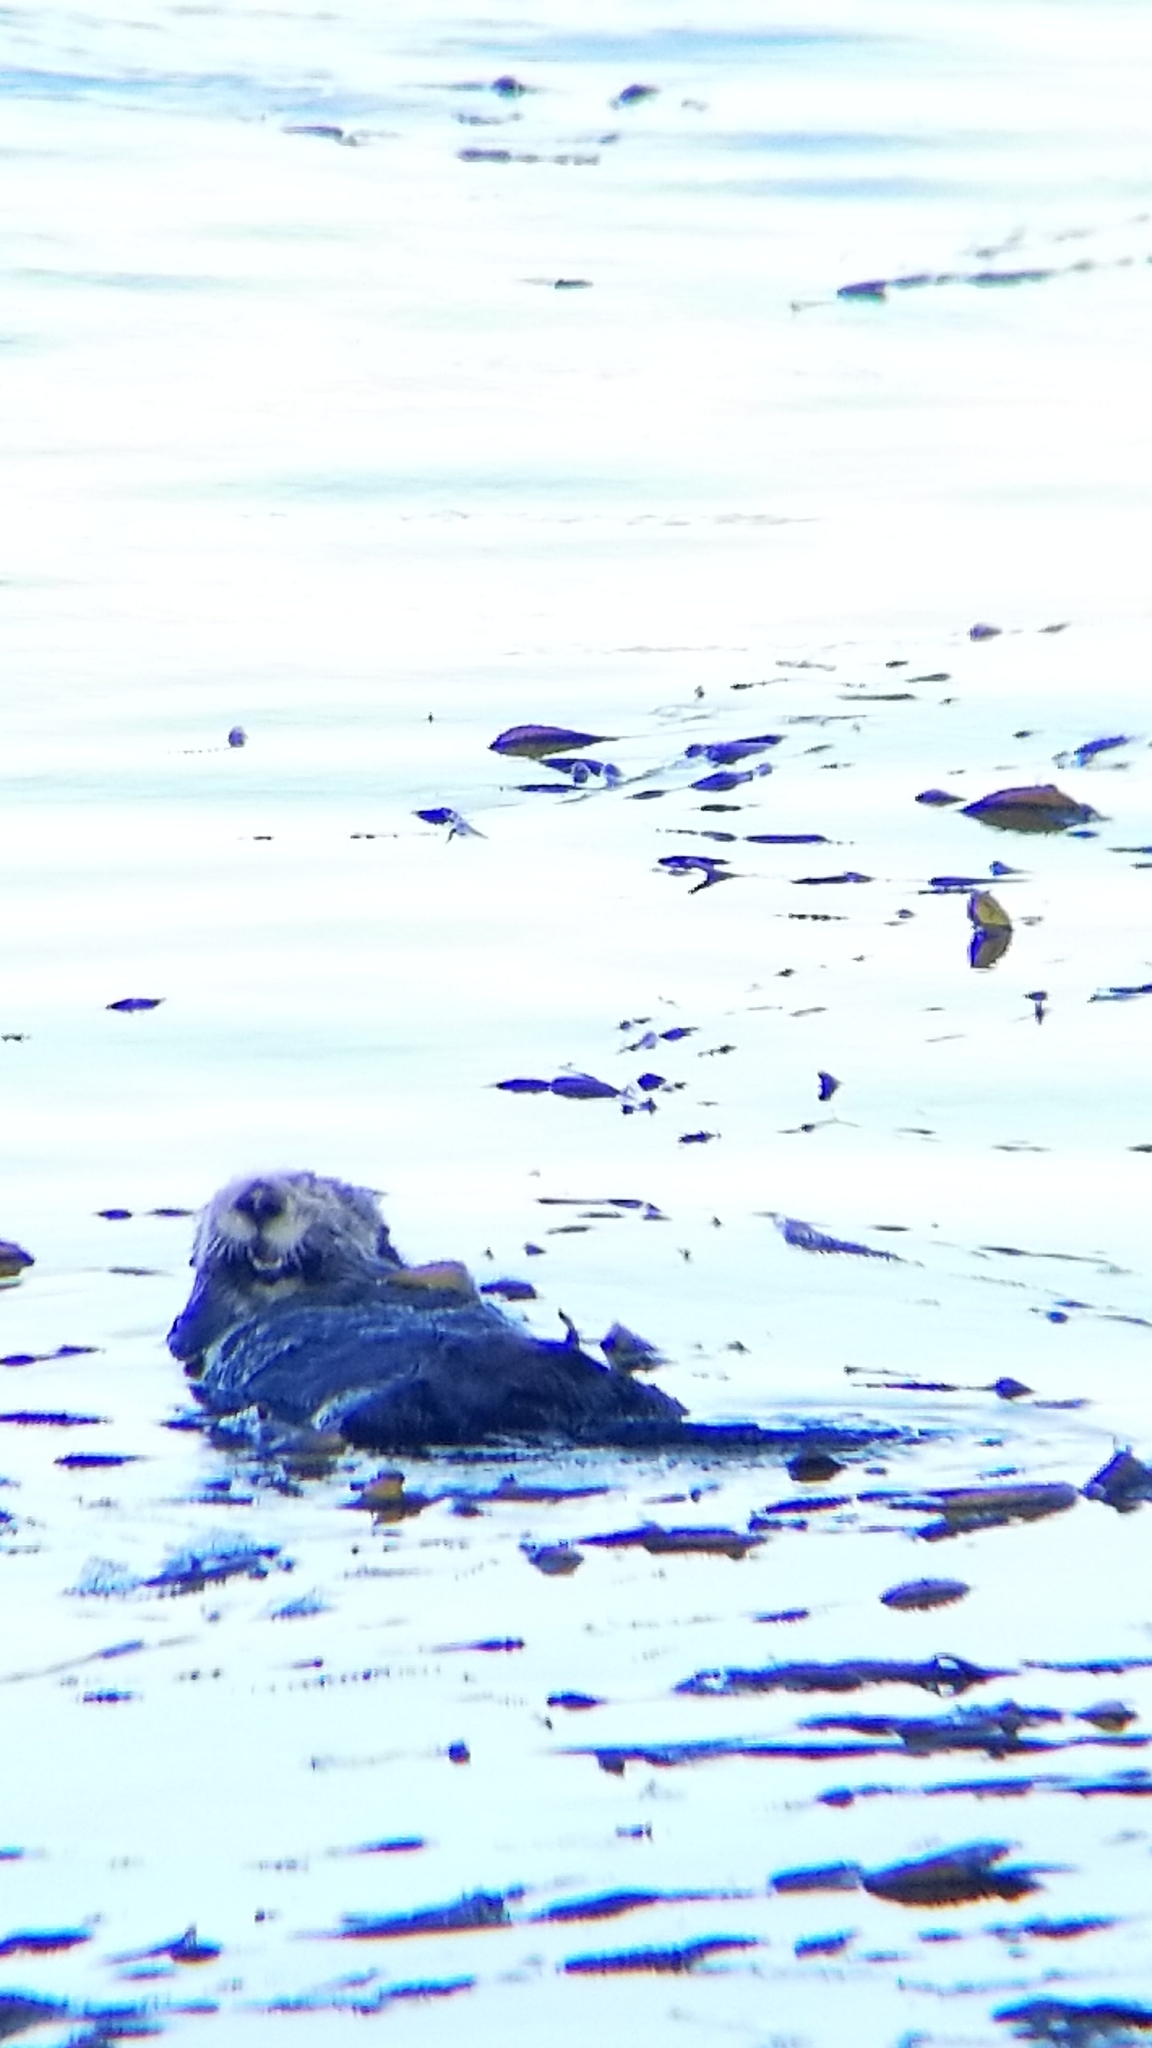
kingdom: Animalia
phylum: Chordata
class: Mammalia
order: Carnivora
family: Mustelidae
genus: Enhydra
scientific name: Enhydra lutris
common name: Sea otter
